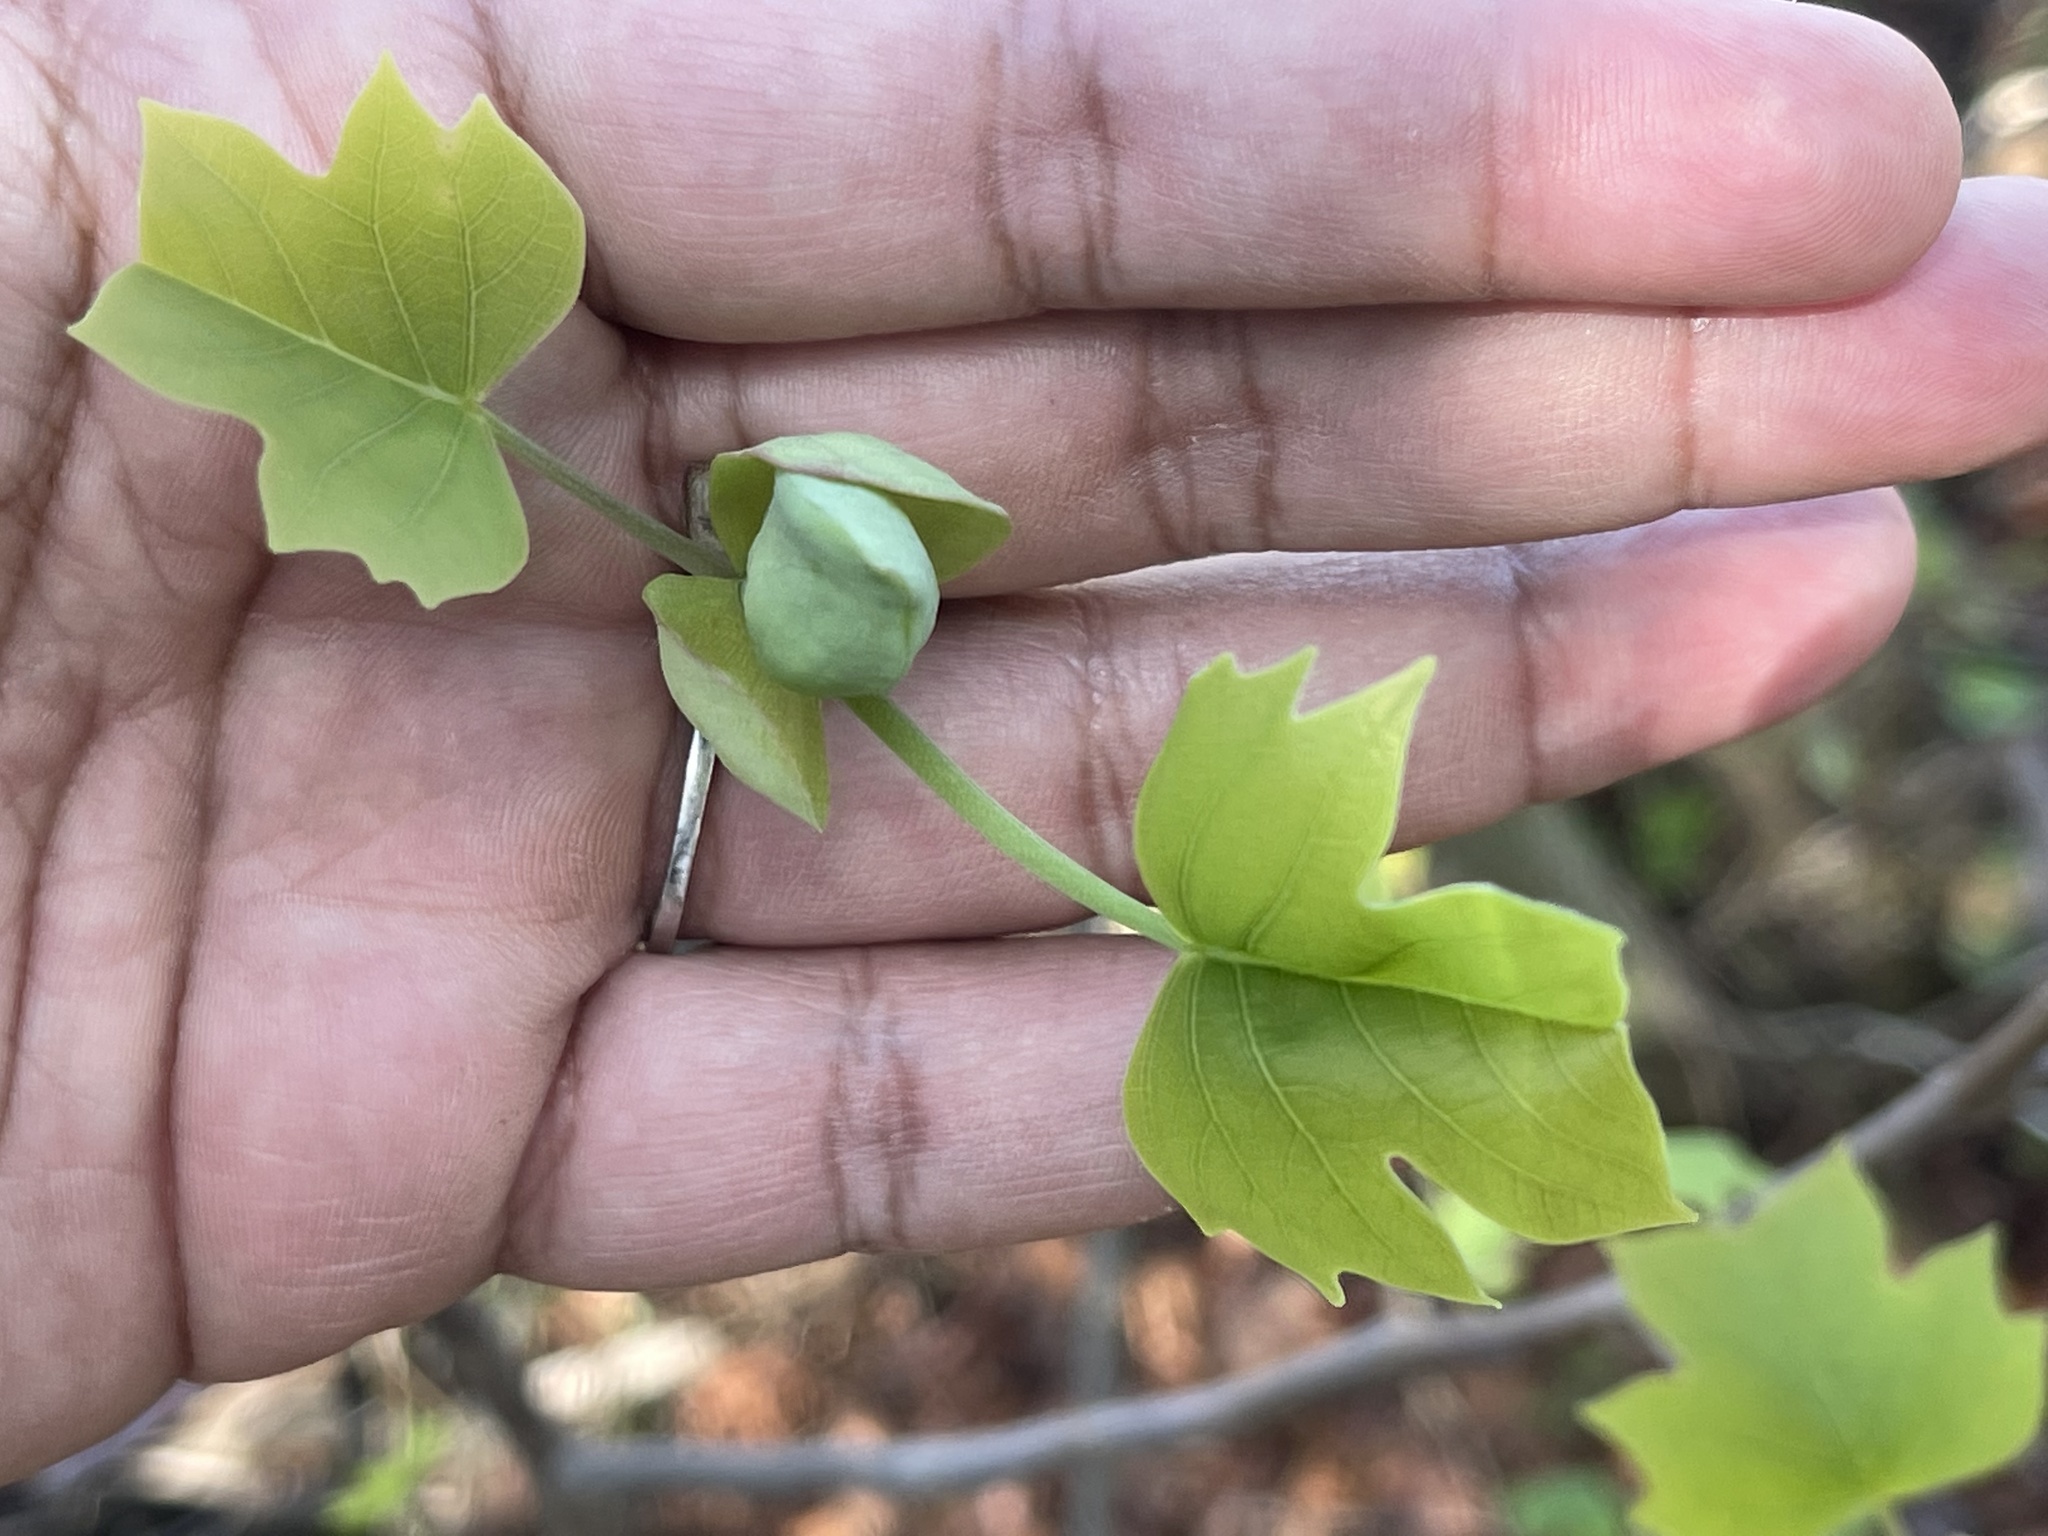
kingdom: Plantae
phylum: Tracheophyta
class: Magnoliopsida
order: Magnoliales
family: Magnoliaceae
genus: Liriodendron
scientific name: Liriodendron tulipifera
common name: Tulip tree
